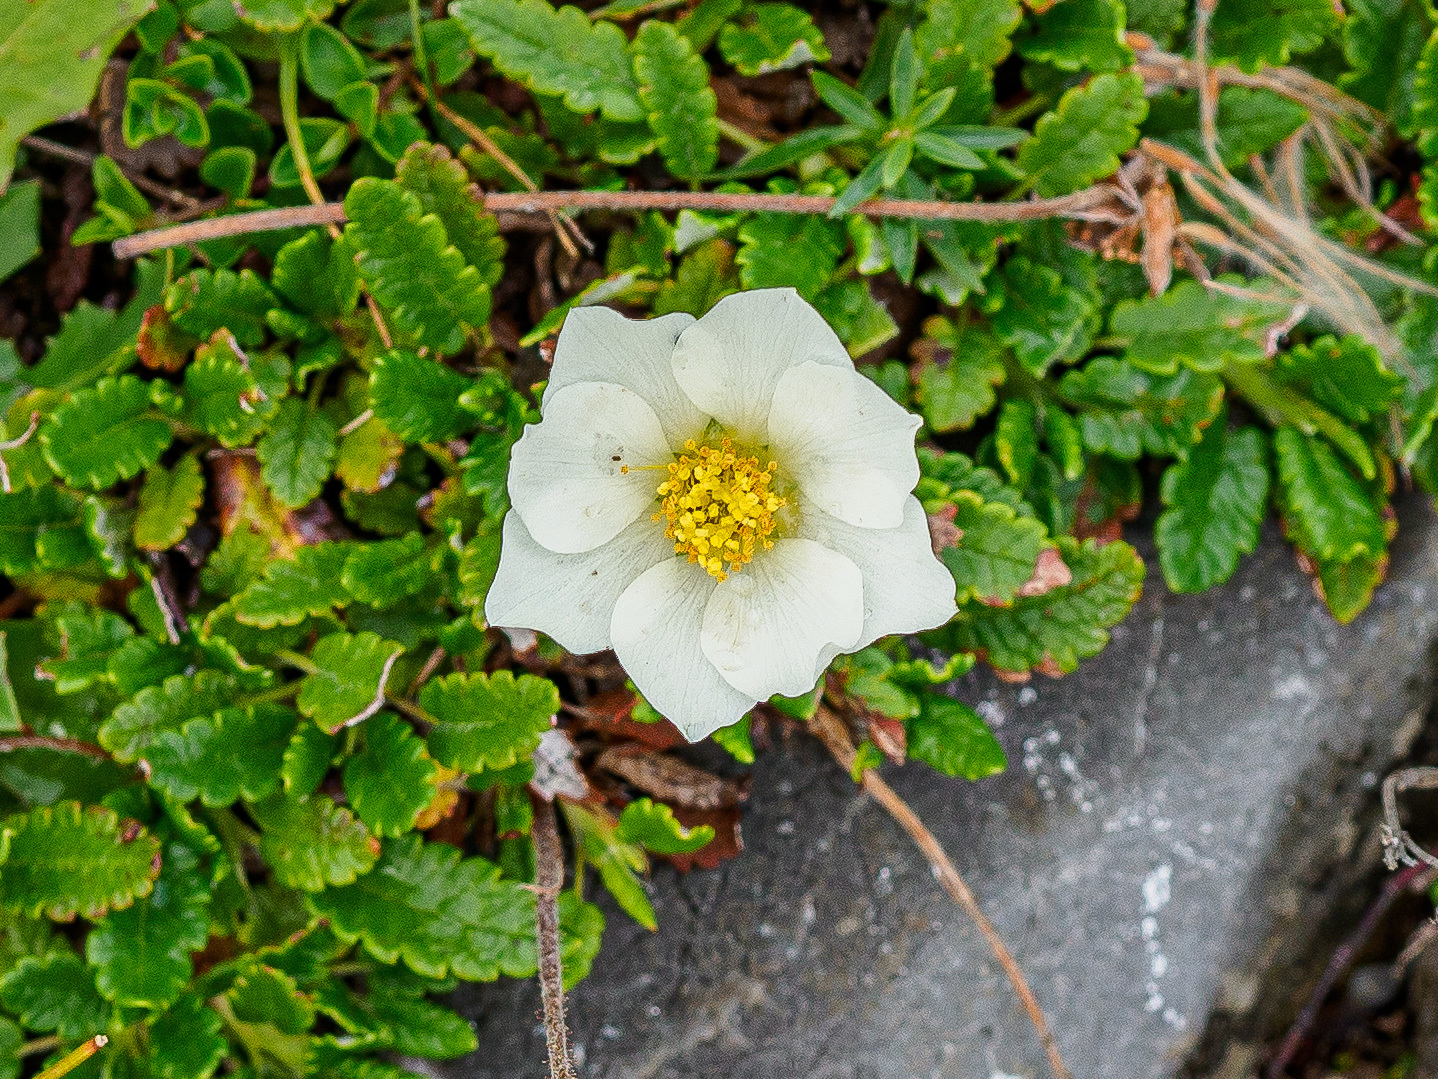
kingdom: Plantae
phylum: Tracheophyta
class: Magnoliopsida
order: Rosales
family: Rosaceae
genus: Dryas
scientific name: Dryas octopetala
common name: Eight-petal mountain-avens
